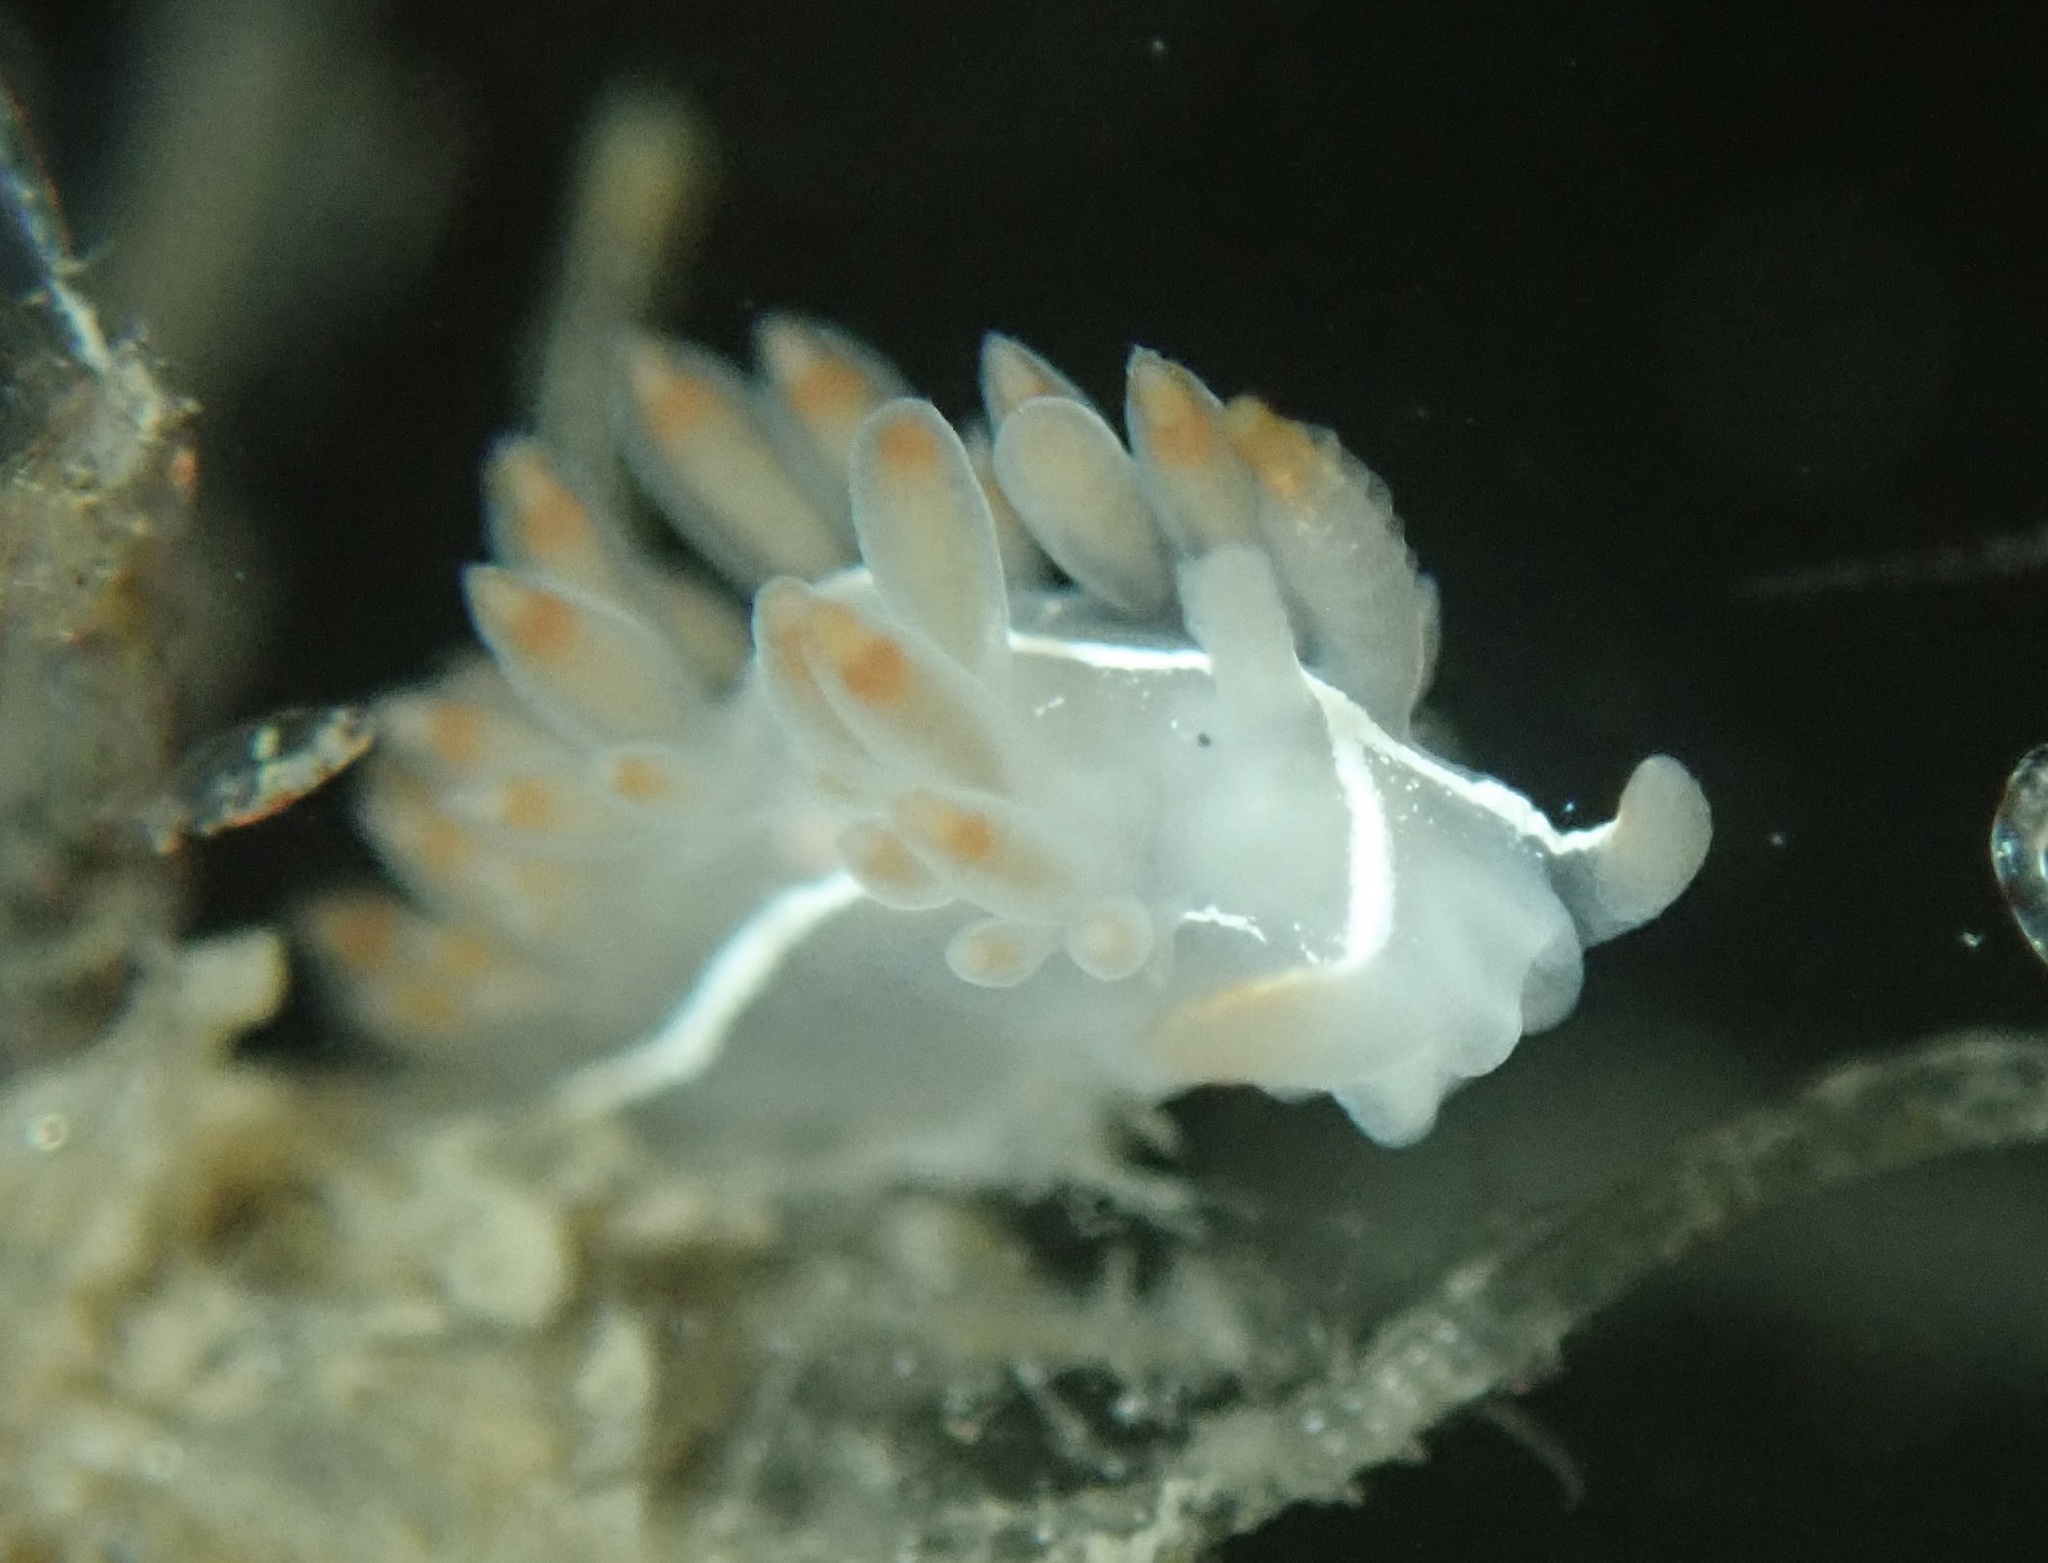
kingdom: Animalia
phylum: Mollusca
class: Gastropoda
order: Nudibranchia
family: Coryphellidae
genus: Coryphella
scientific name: Coryphella trilineata
